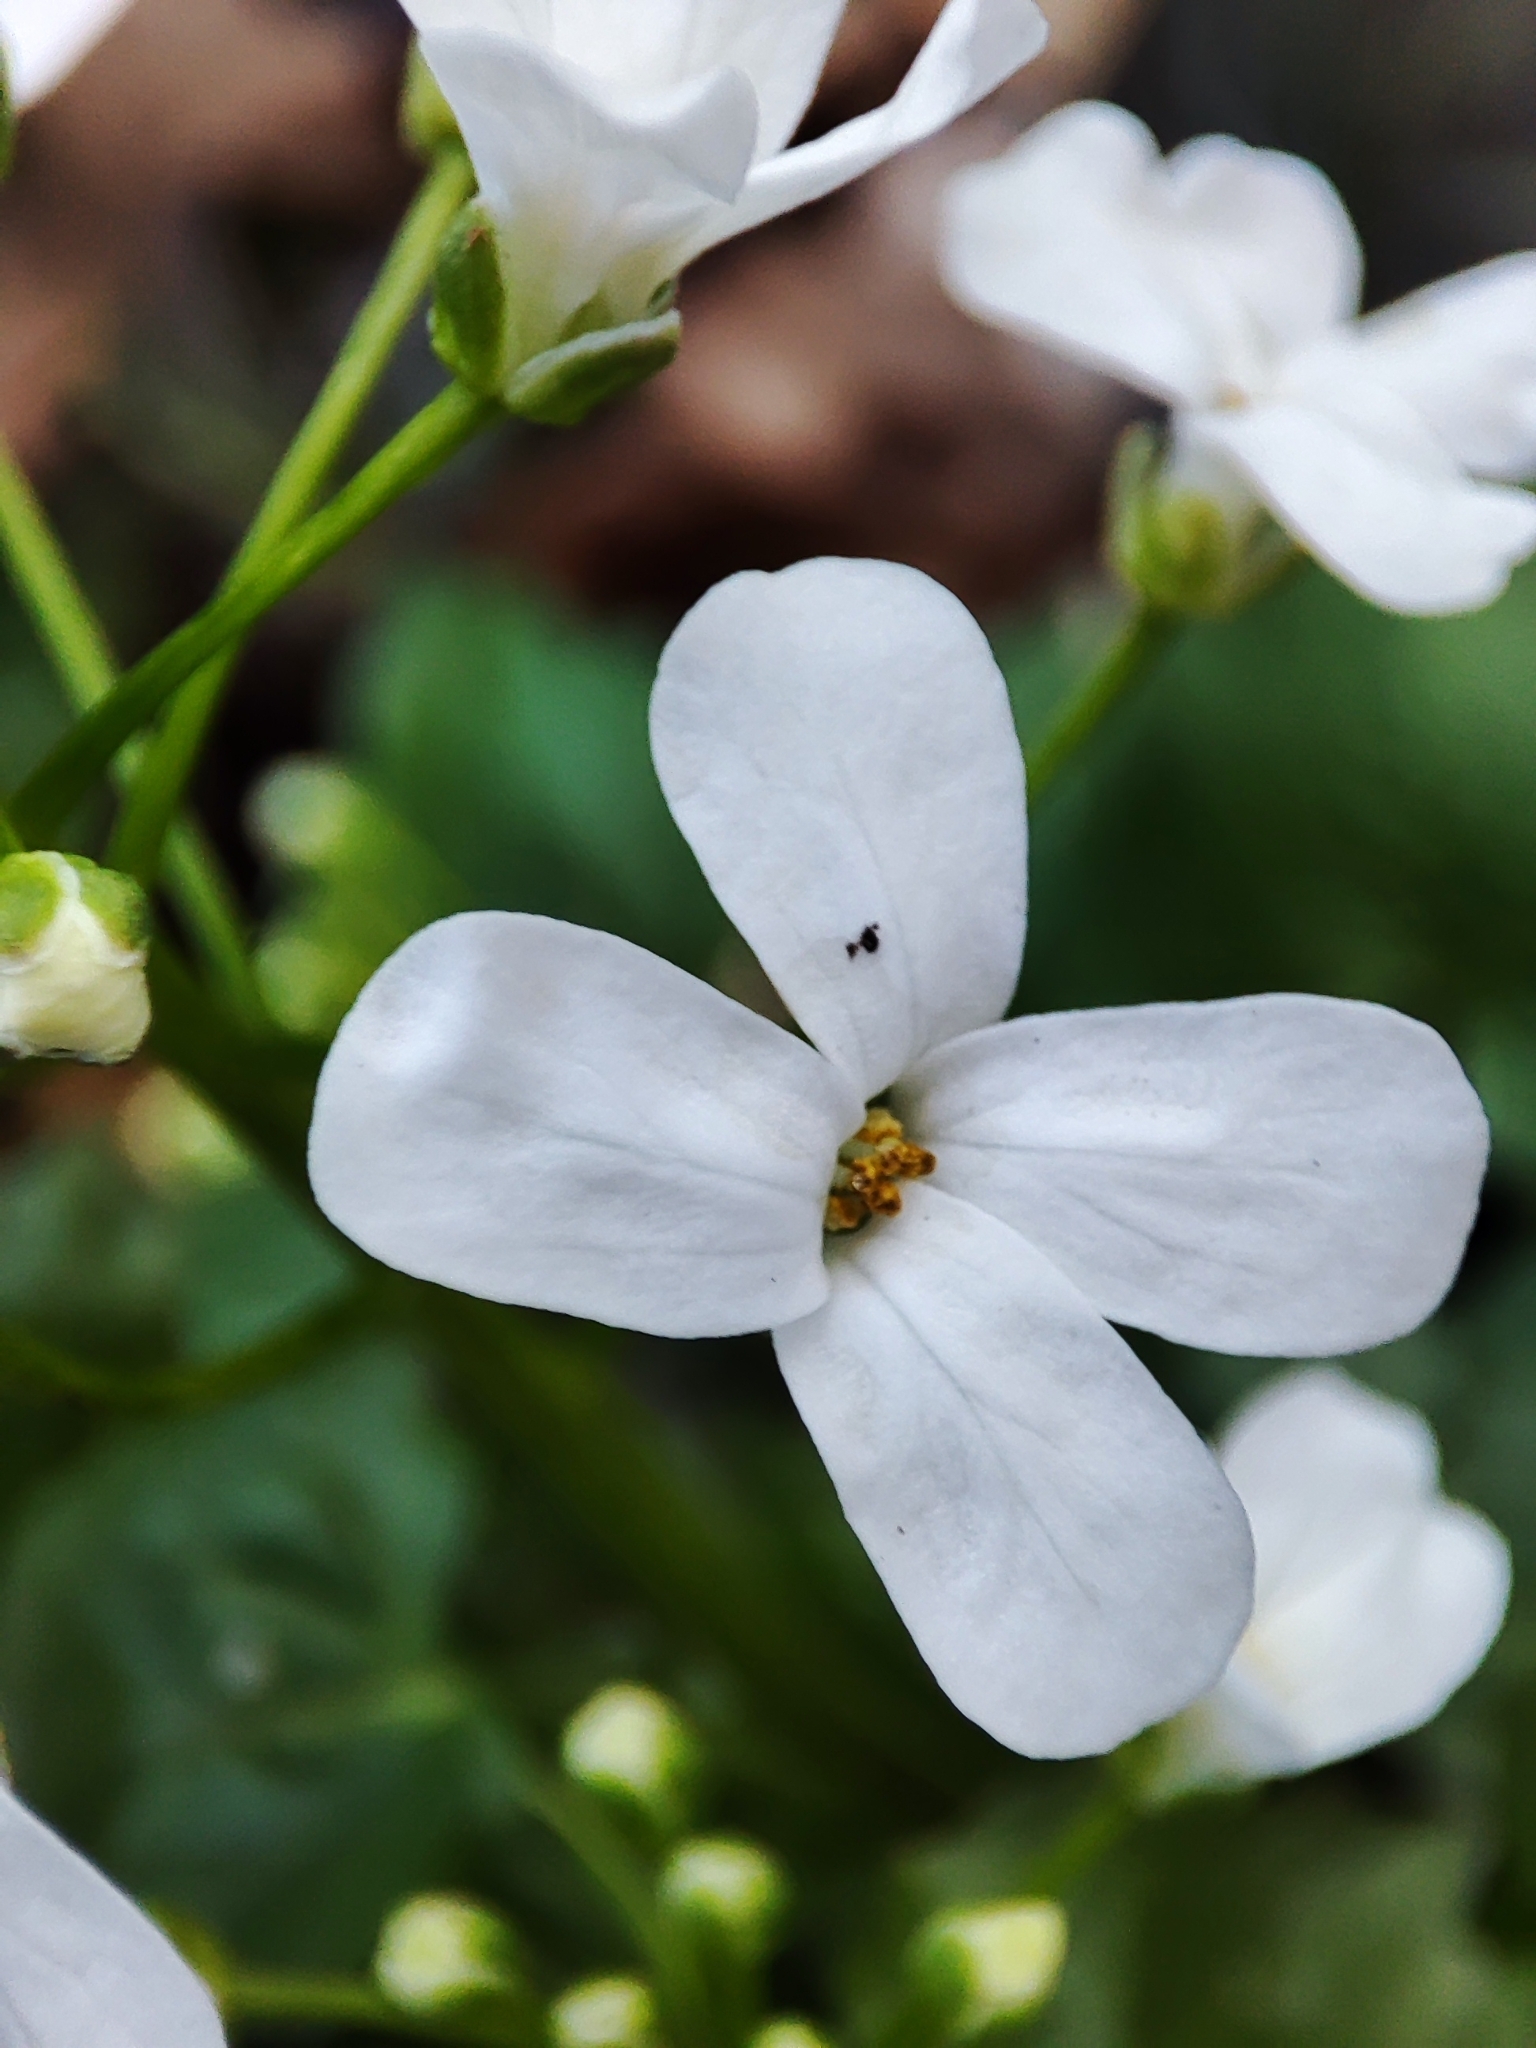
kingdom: Plantae
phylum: Tracheophyta
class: Magnoliopsida
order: Brassicales
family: Brassicaceae
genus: Pachyphragma
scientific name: Pachyphragma macrophyllum
